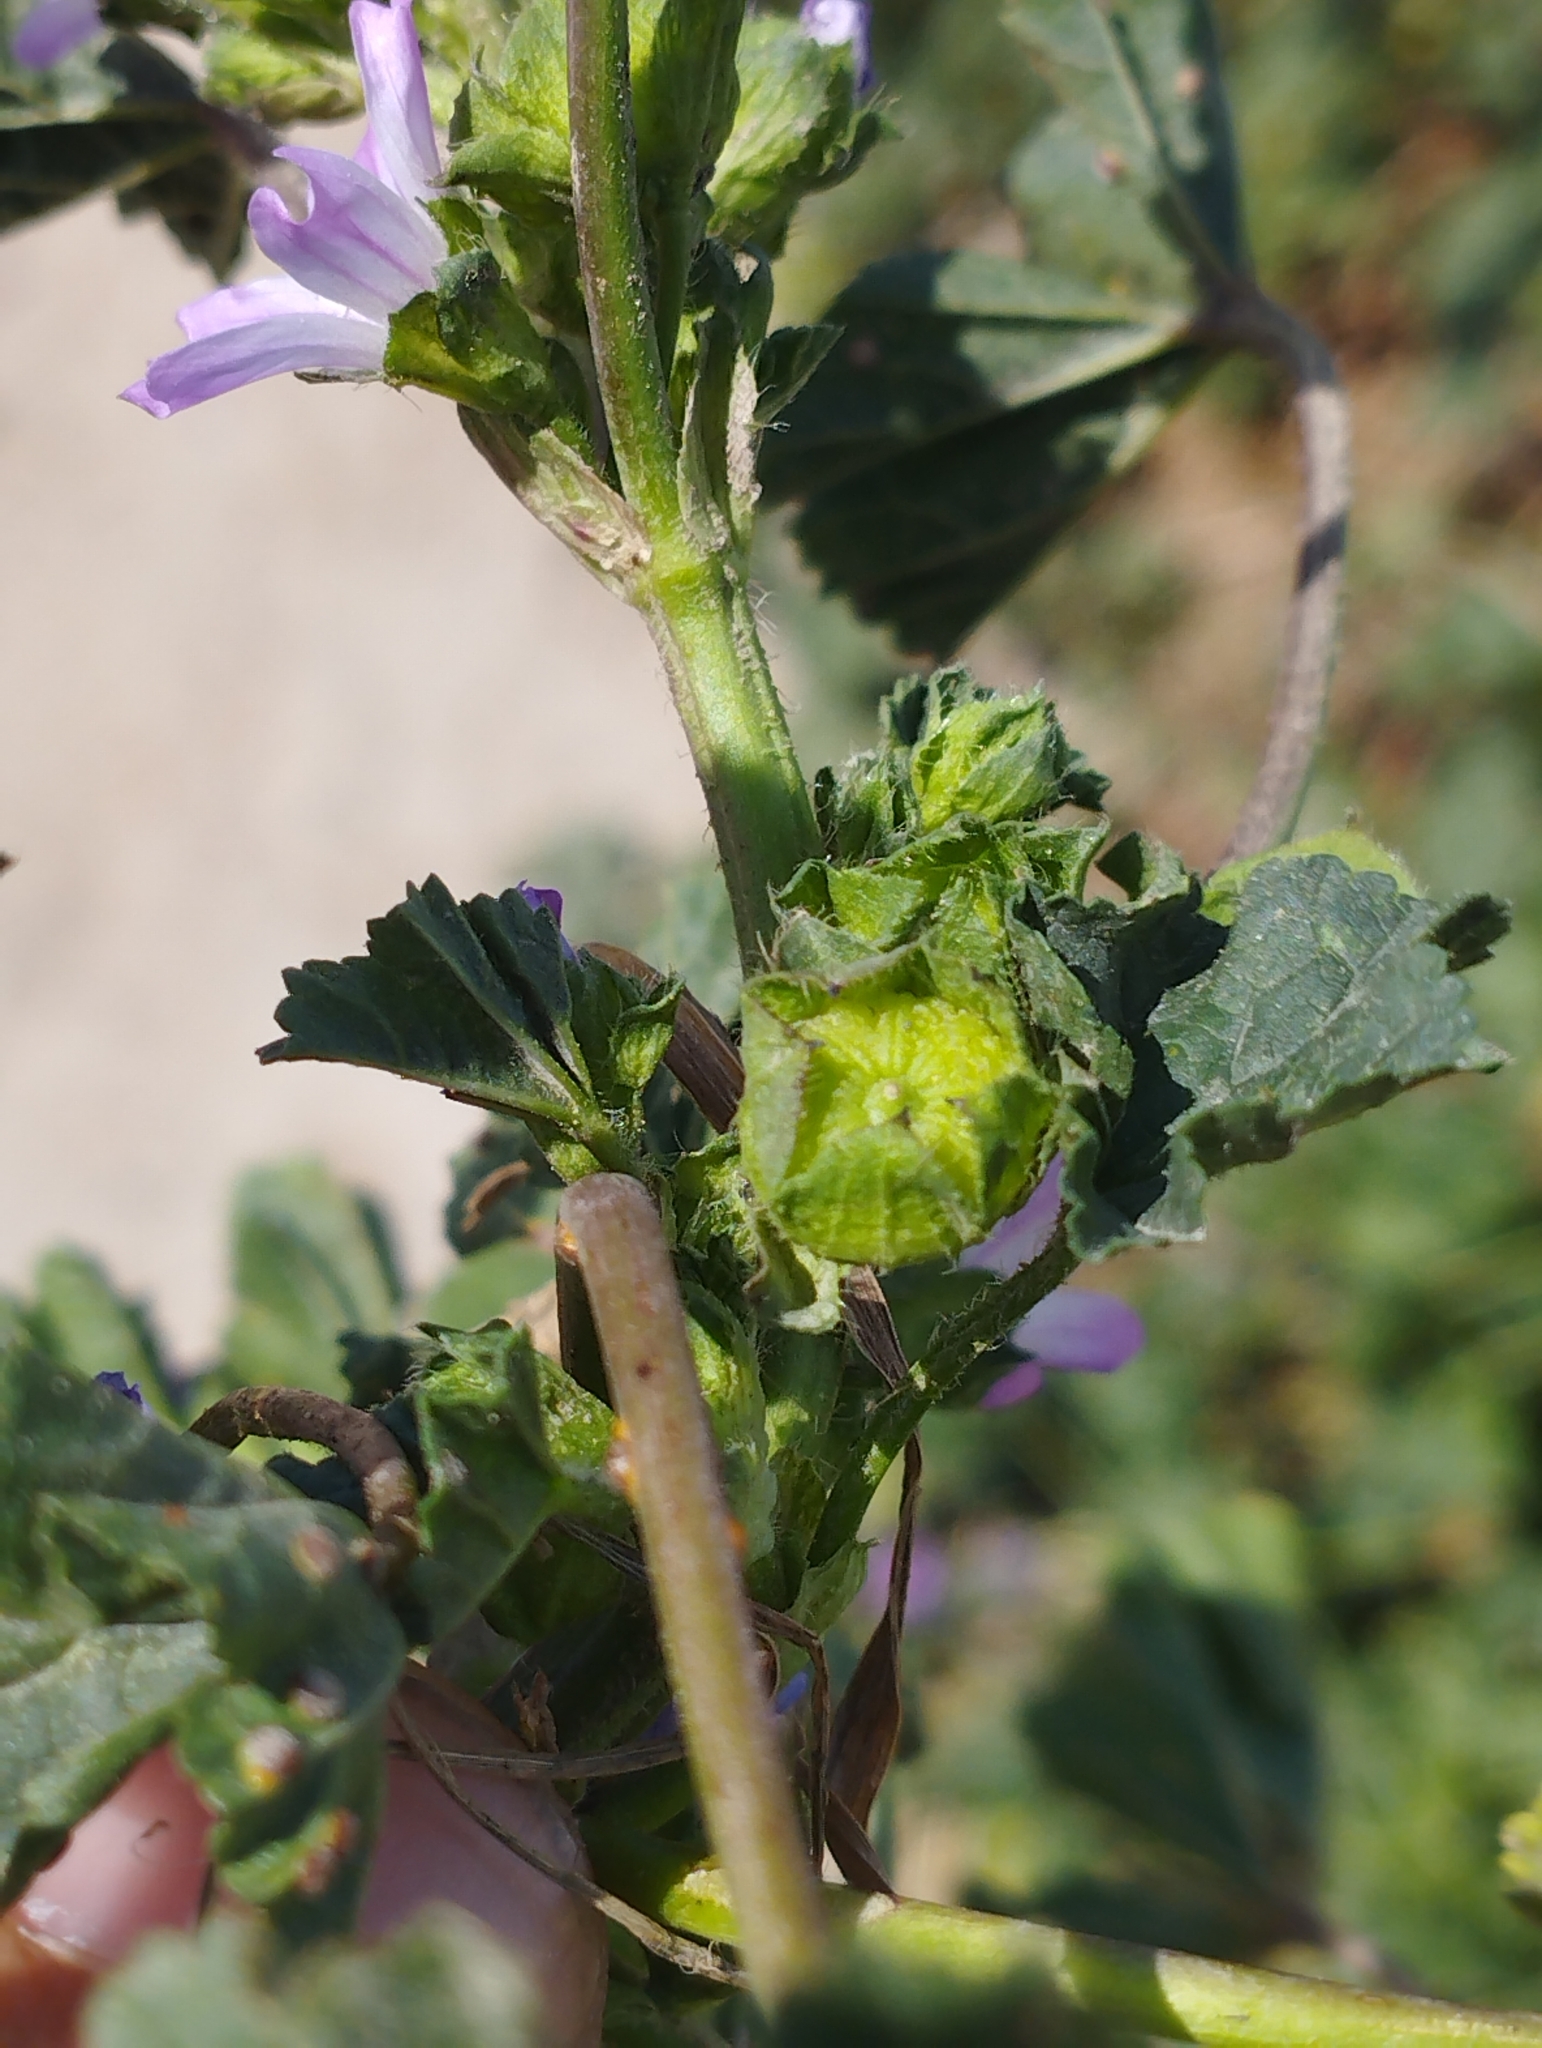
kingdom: Plantae
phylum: Tracheophyta
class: Magnoliopsida
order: Malvales
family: Malvaceae
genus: Malva
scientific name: Malva nicaeensis
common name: French mallow
